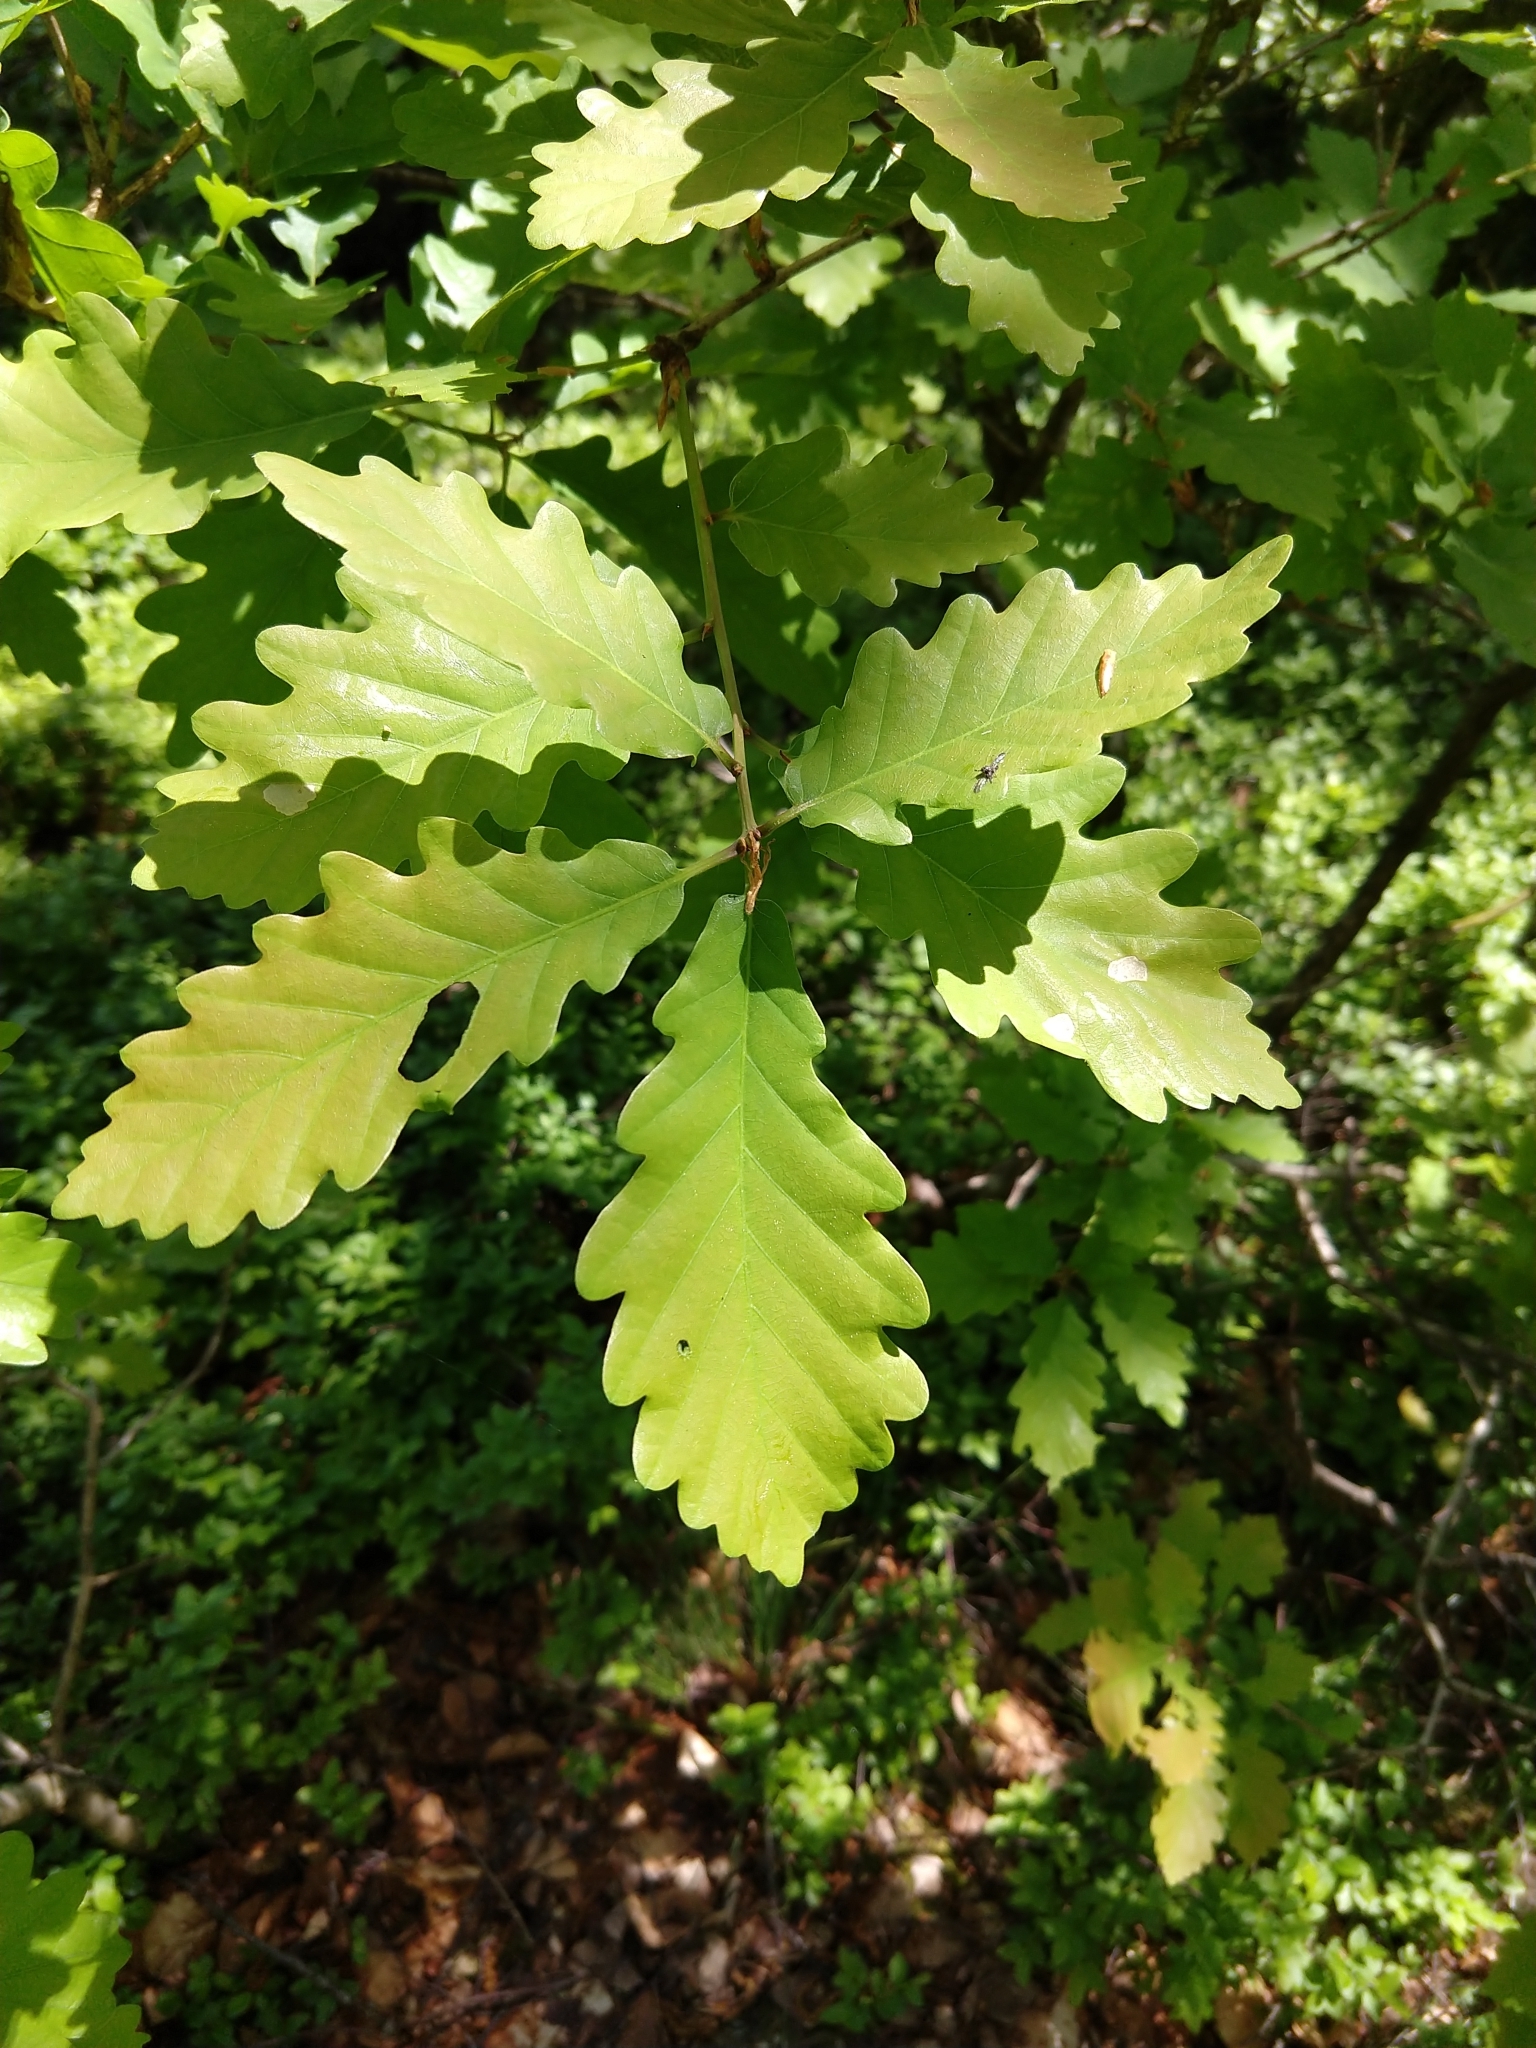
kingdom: Plantae
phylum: Tracheophyta
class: Magnoliopsida
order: Fagales
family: Fagaceae
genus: Quercus
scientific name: Quercus petraea
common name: Sessile oak
